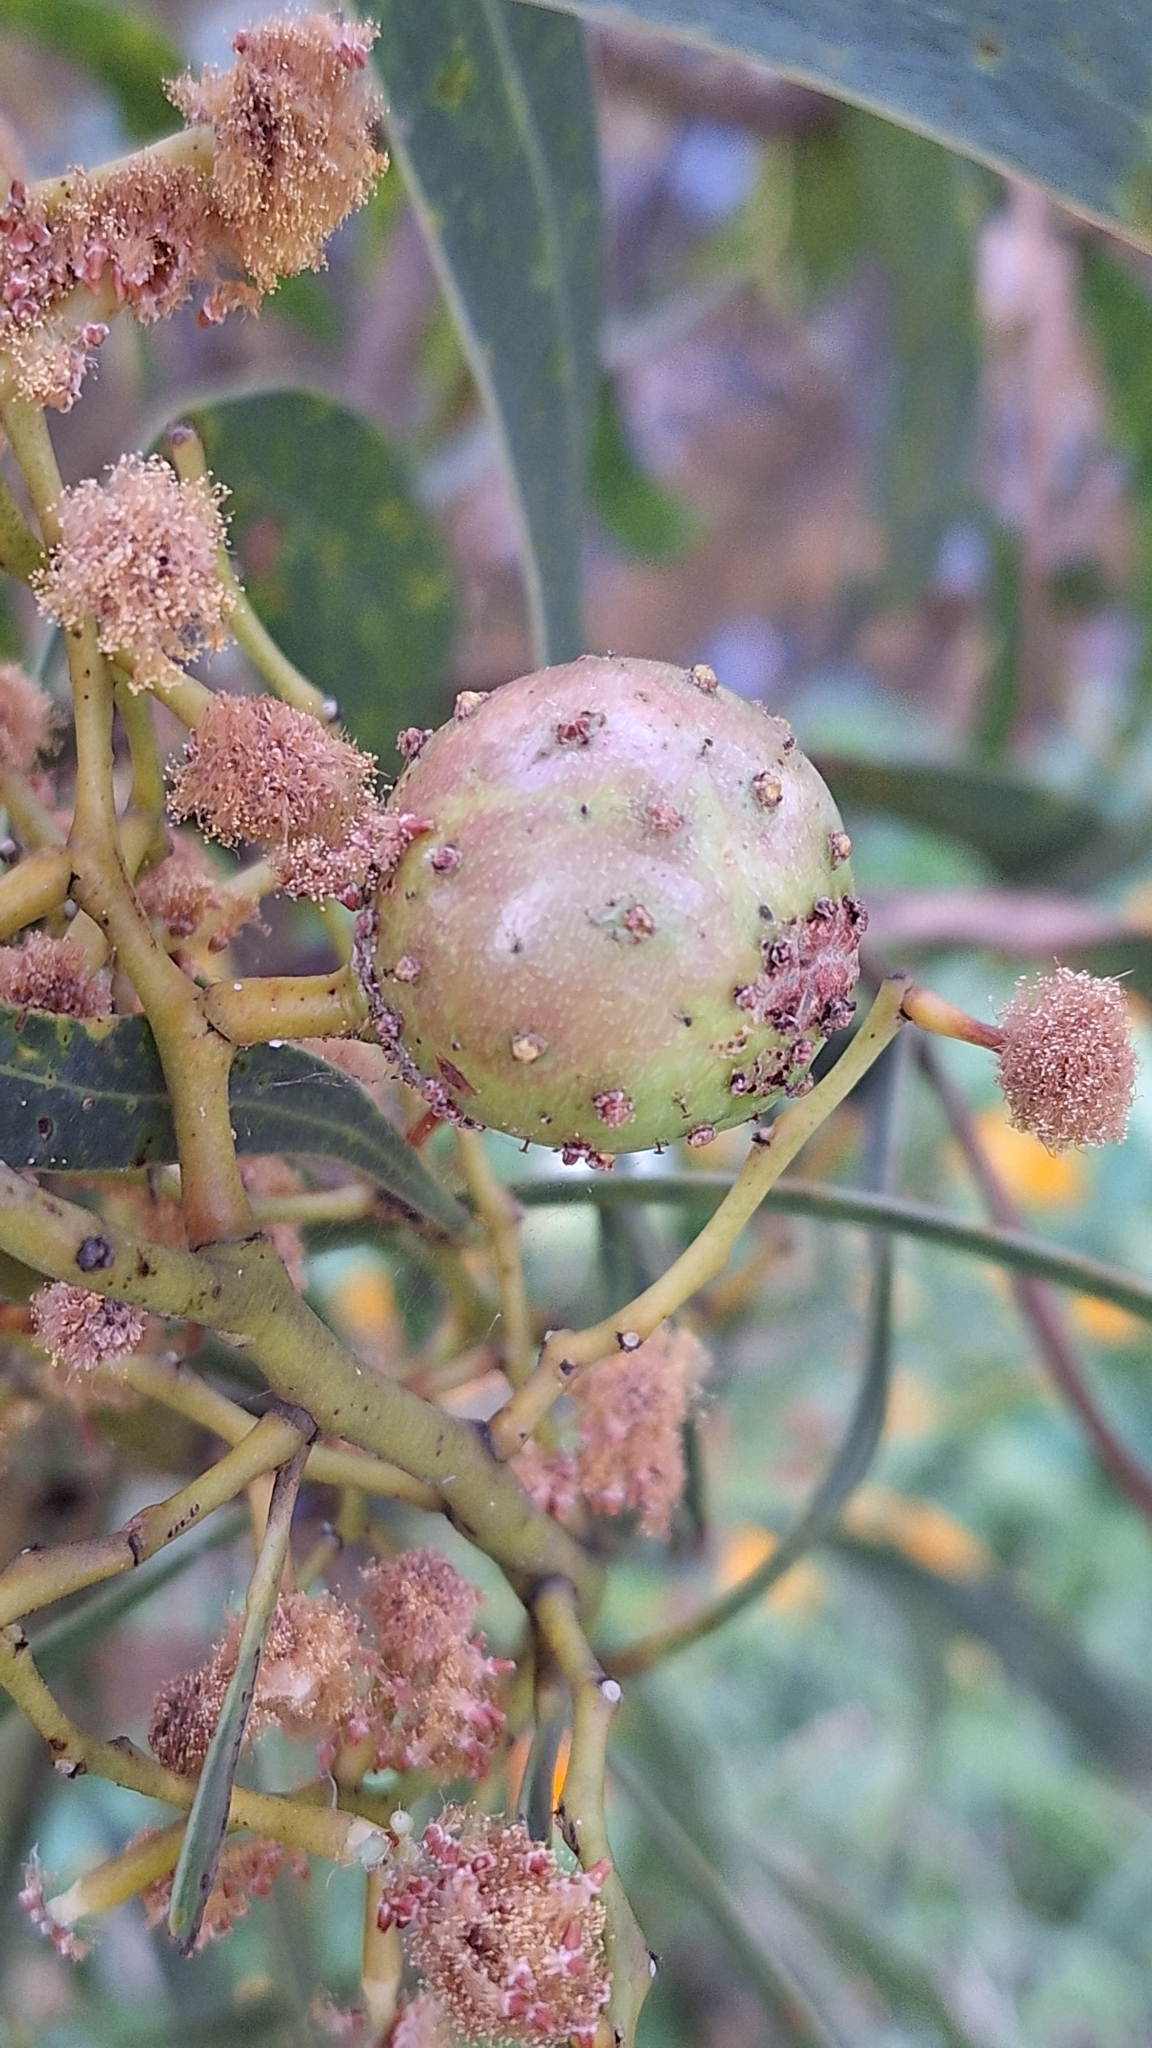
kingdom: Animalia
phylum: Arthropoda
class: Insecta
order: Hymenoptera
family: Pteromalidae
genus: Trichilogaster
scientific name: Trichilogaster signiventris
